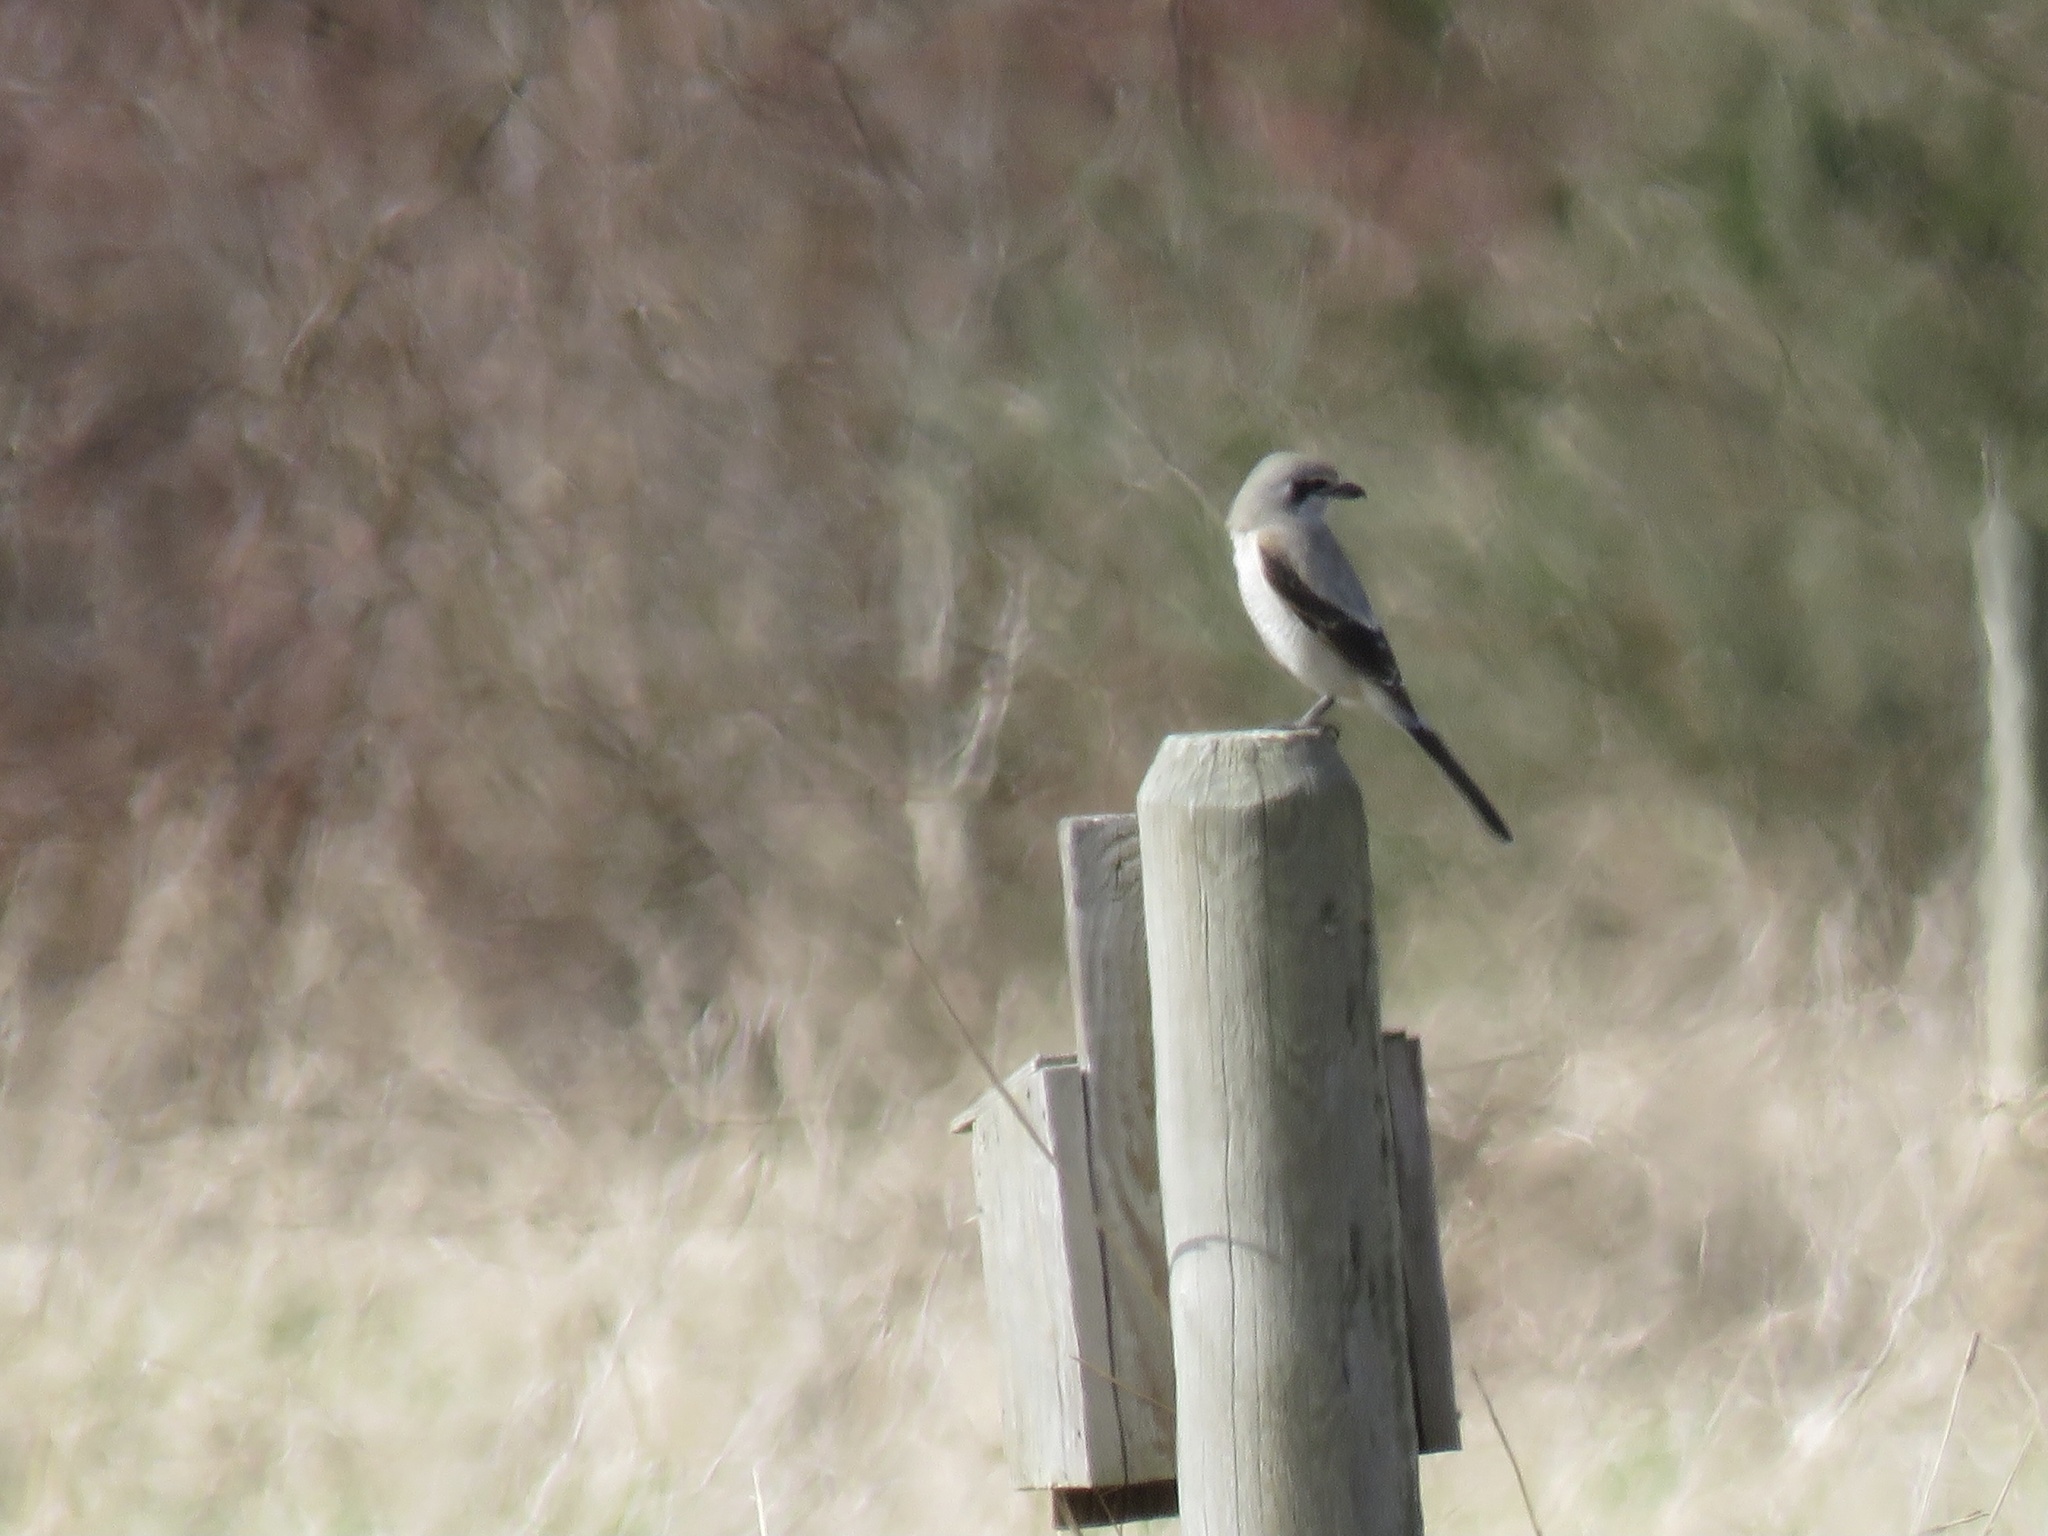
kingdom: Animalia
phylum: Chordata
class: Aves
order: Passeriformes
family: Laniidae
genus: Lanius
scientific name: Lanius borealis
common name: Northern shrike
